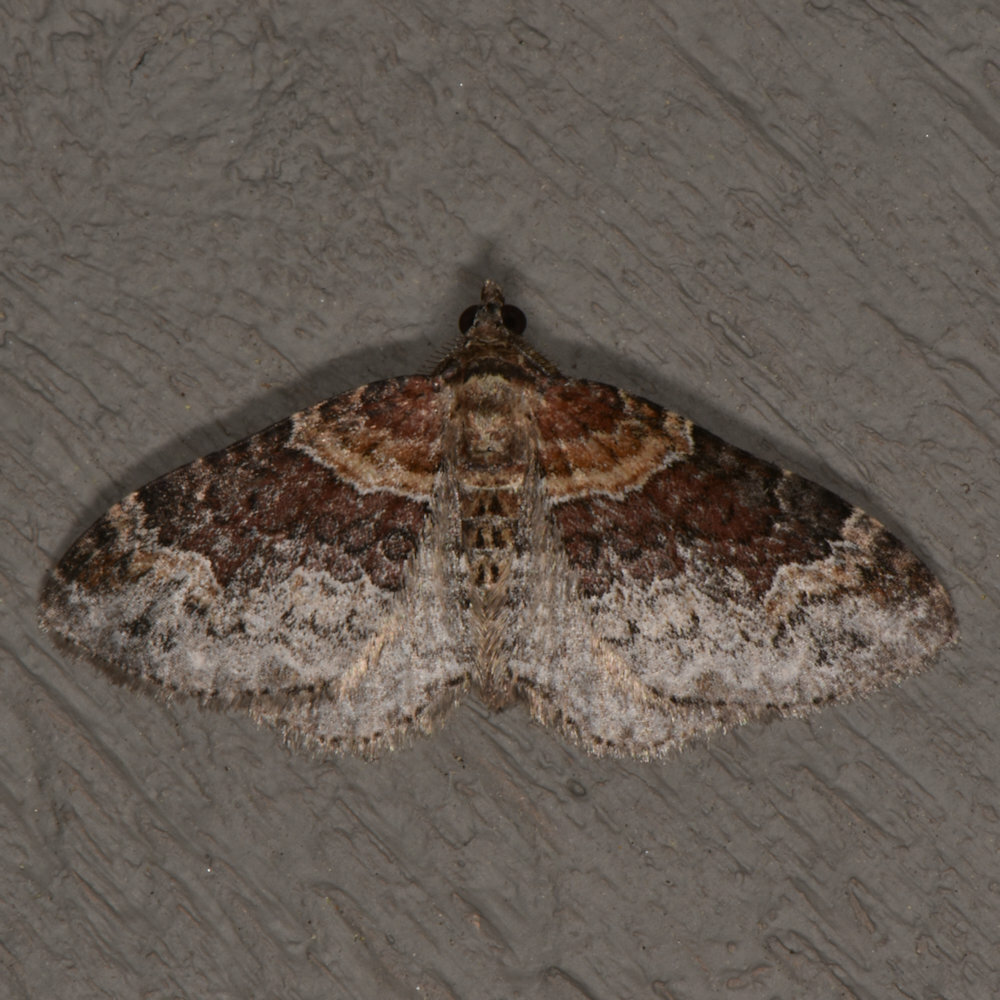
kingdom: Animalia
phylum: Arthropoda
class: Insecta
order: Lepidoptera
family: Geometridae
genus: Xanthorhoe
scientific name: Xanthorhoe ferrugata
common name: Dark-barred twin-spot carpet
